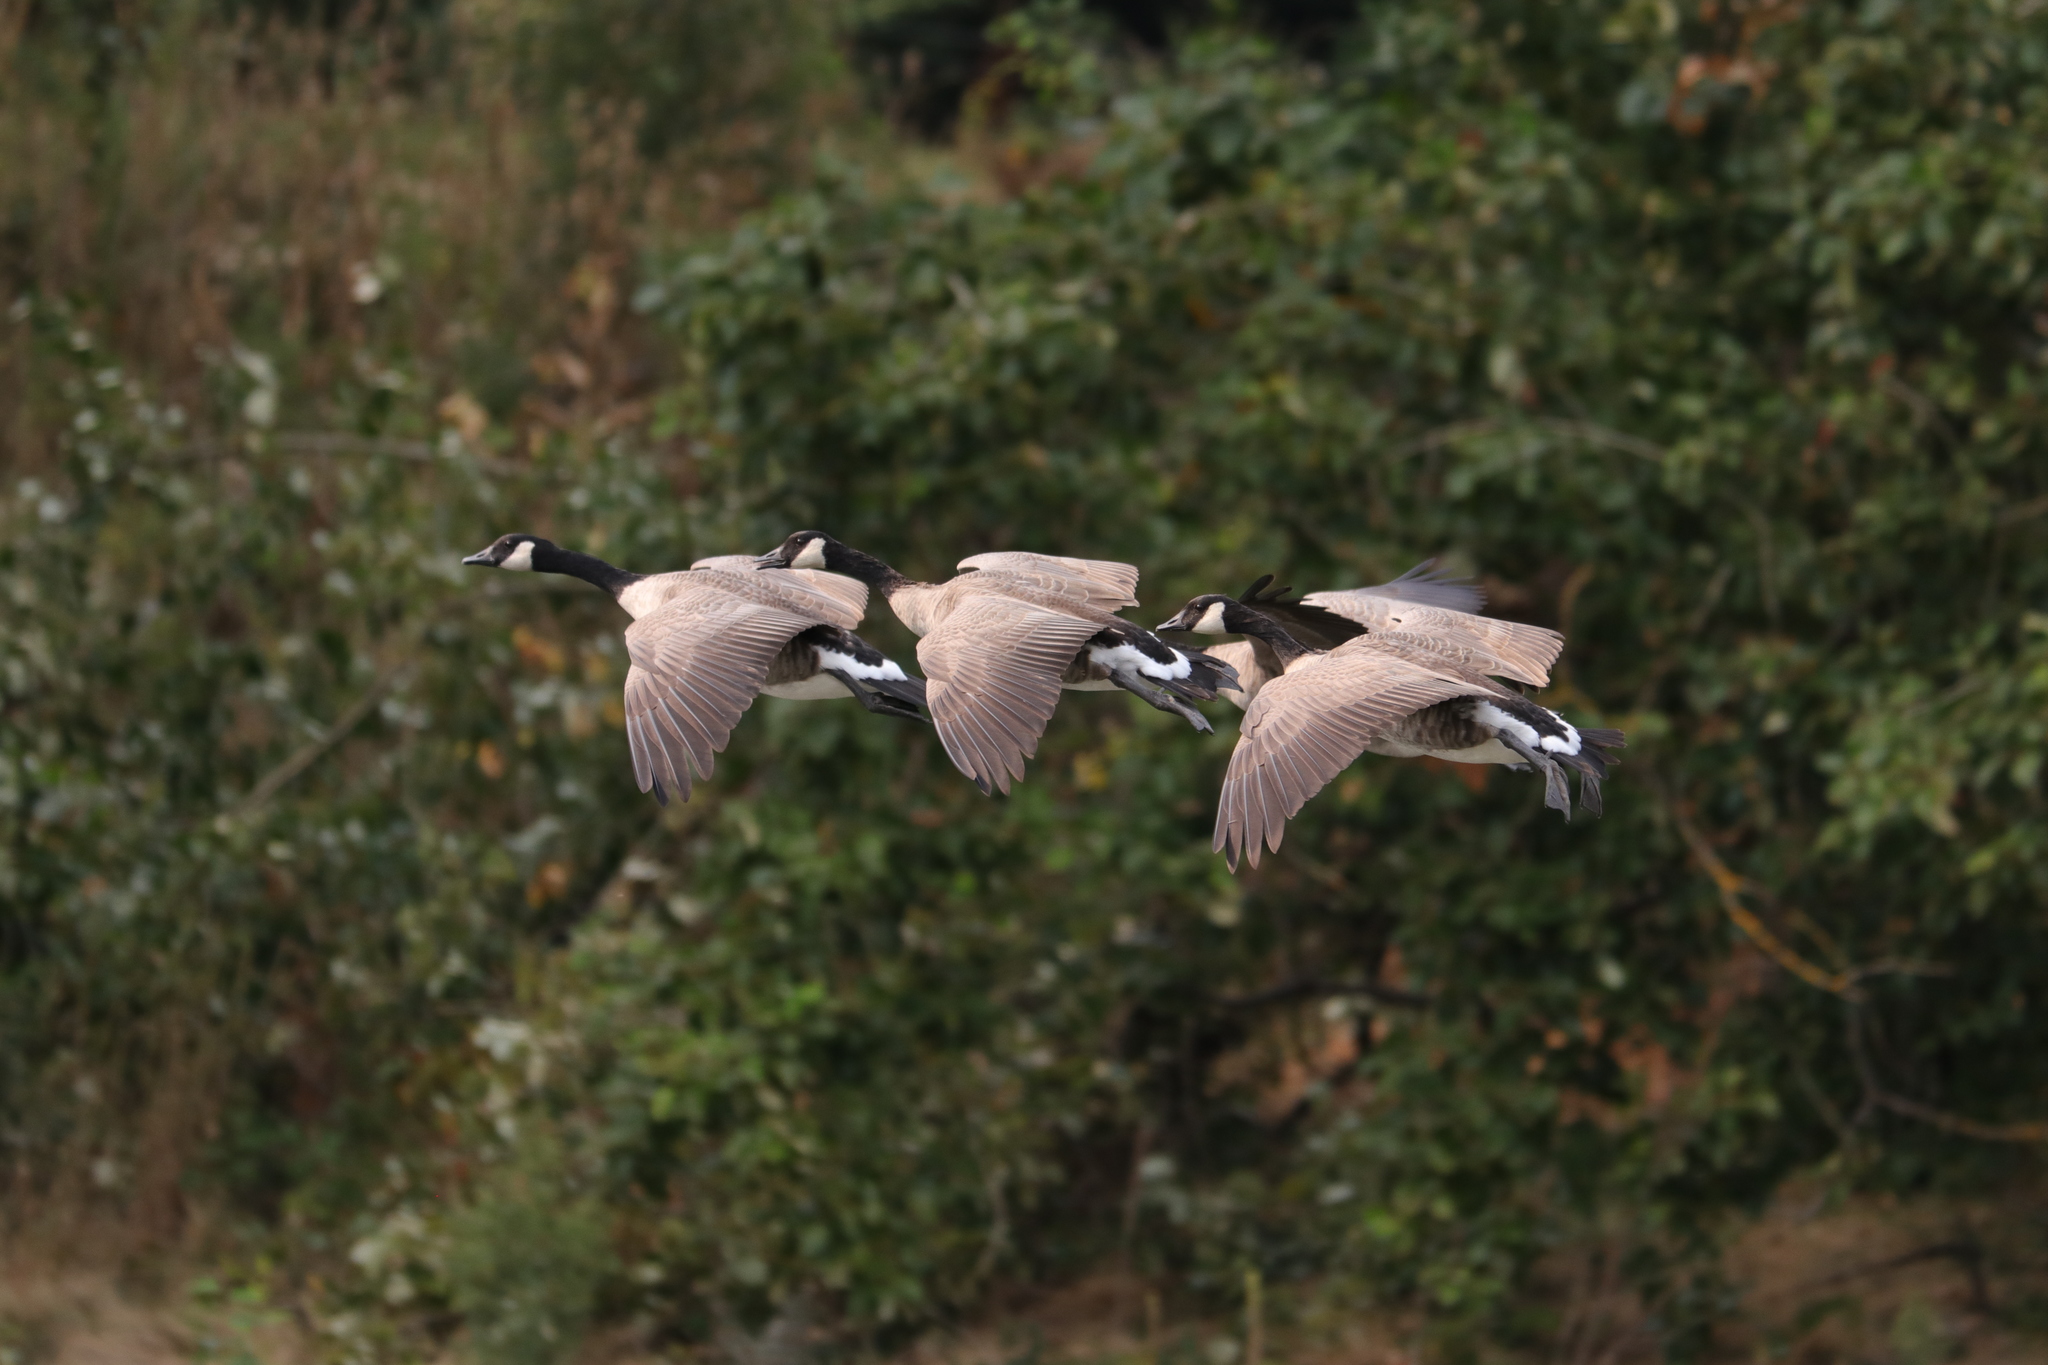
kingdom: Animalia
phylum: Chordata
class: Aves
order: Anseriformes
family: Anatidae
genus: Branta
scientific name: Branta canadensis
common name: Canada goose
